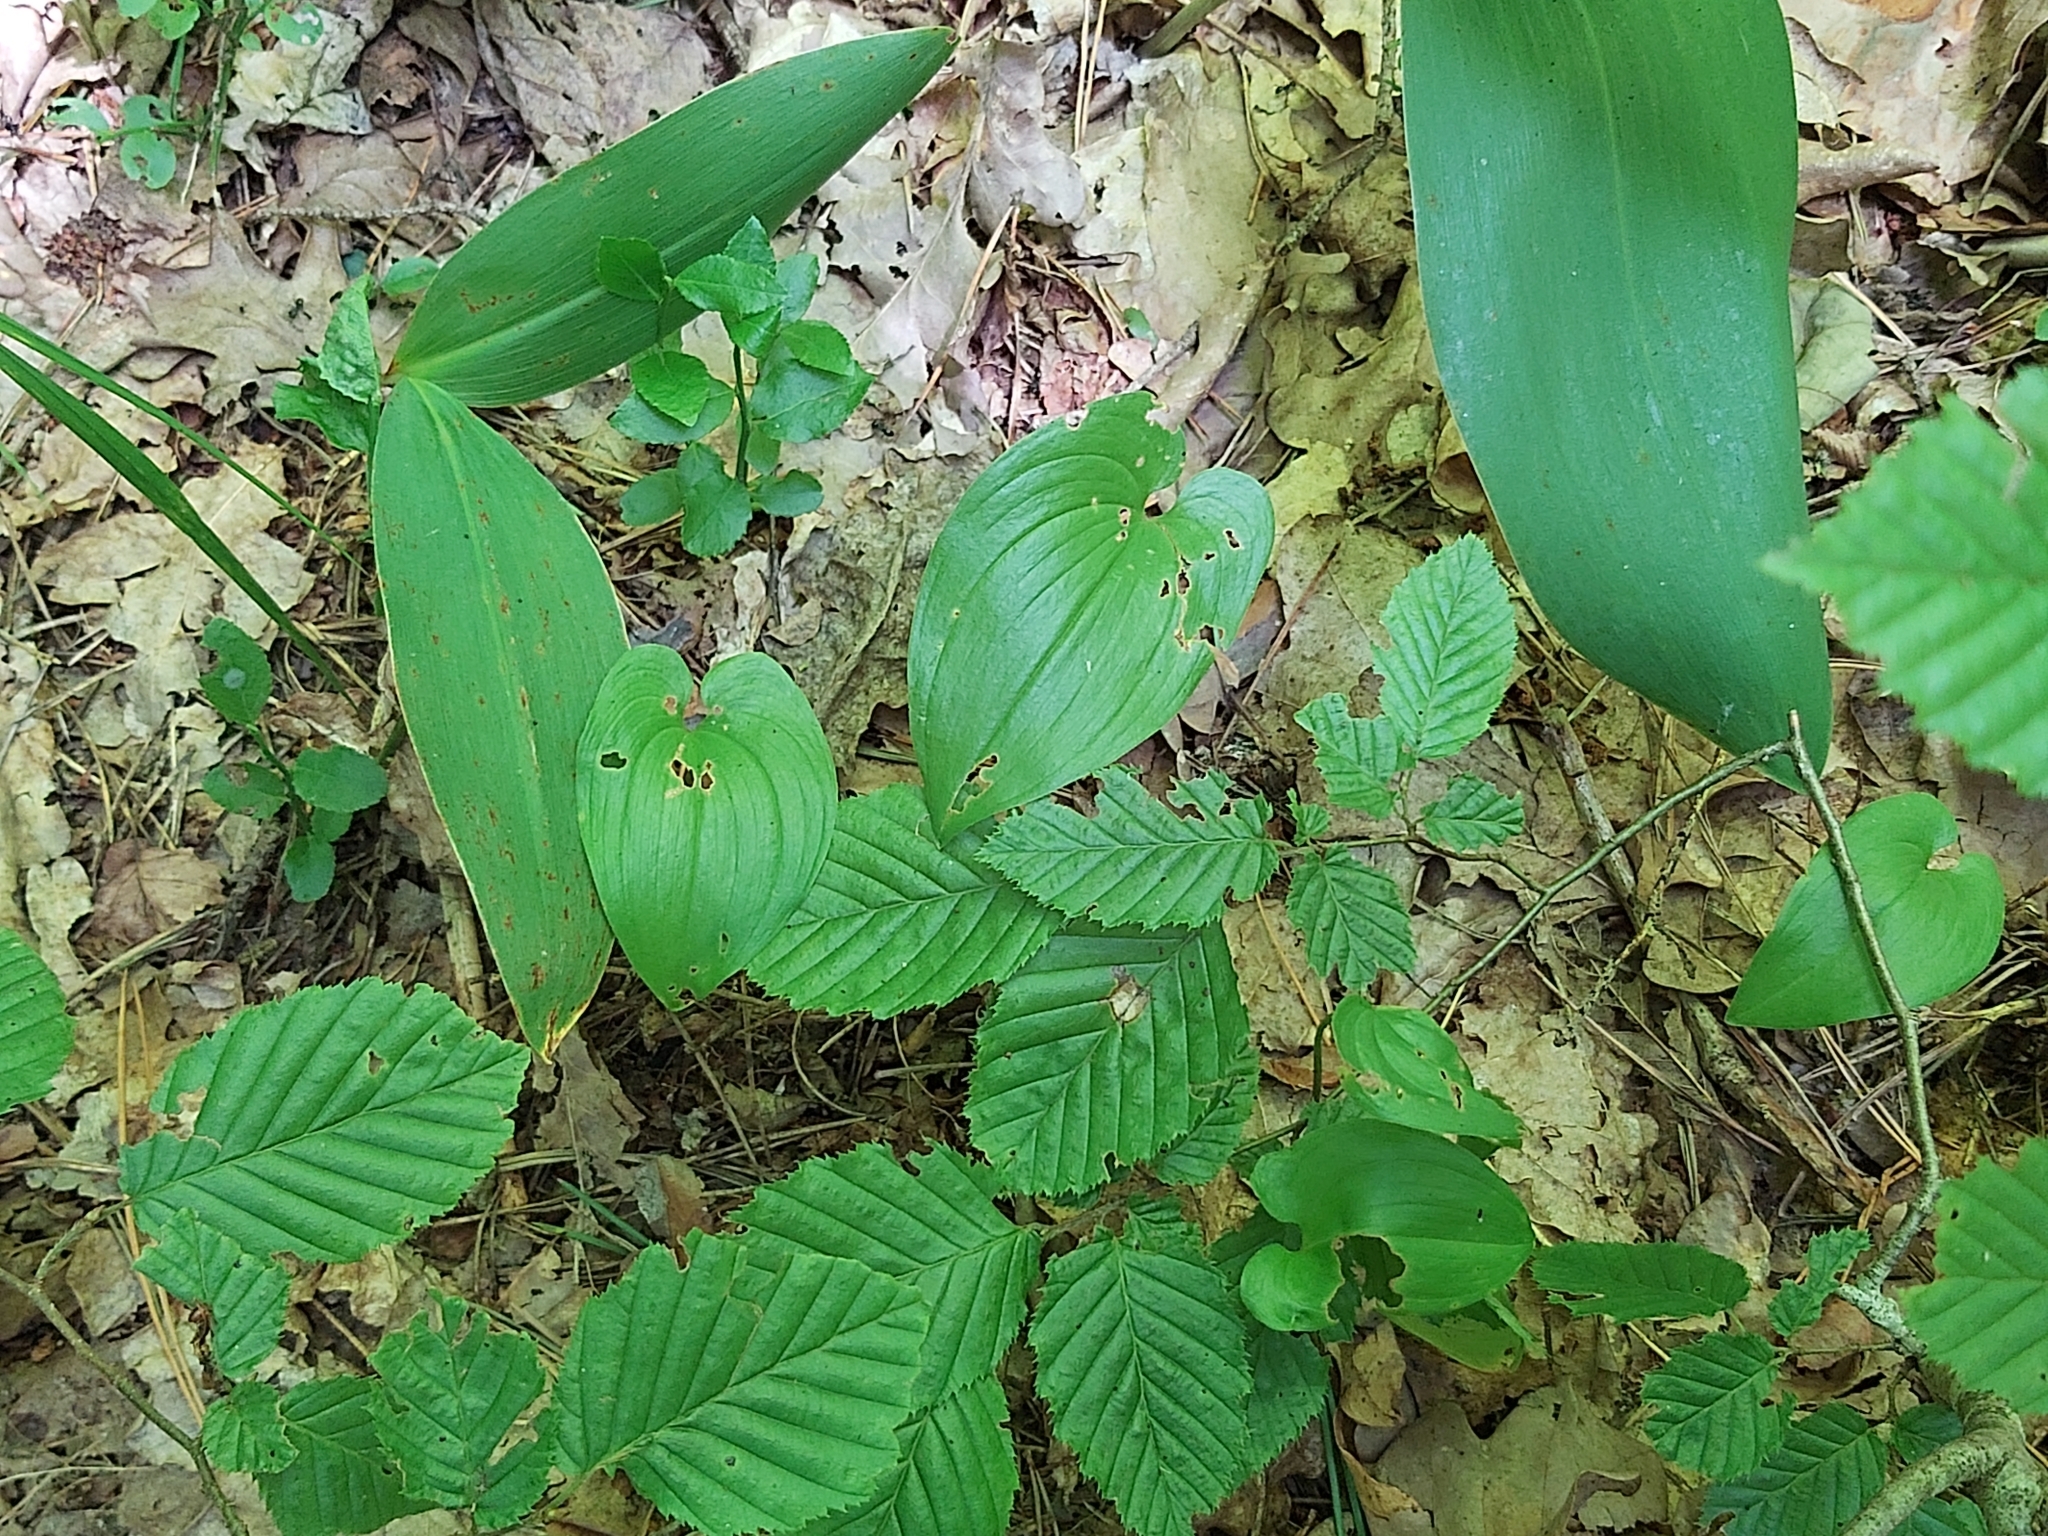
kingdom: Plantae
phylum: Tracheophyta
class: Liliopsida
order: Asparagales
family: Asparagaceae
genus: Maianthemum
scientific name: Maianthemum bifolium
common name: May lily
